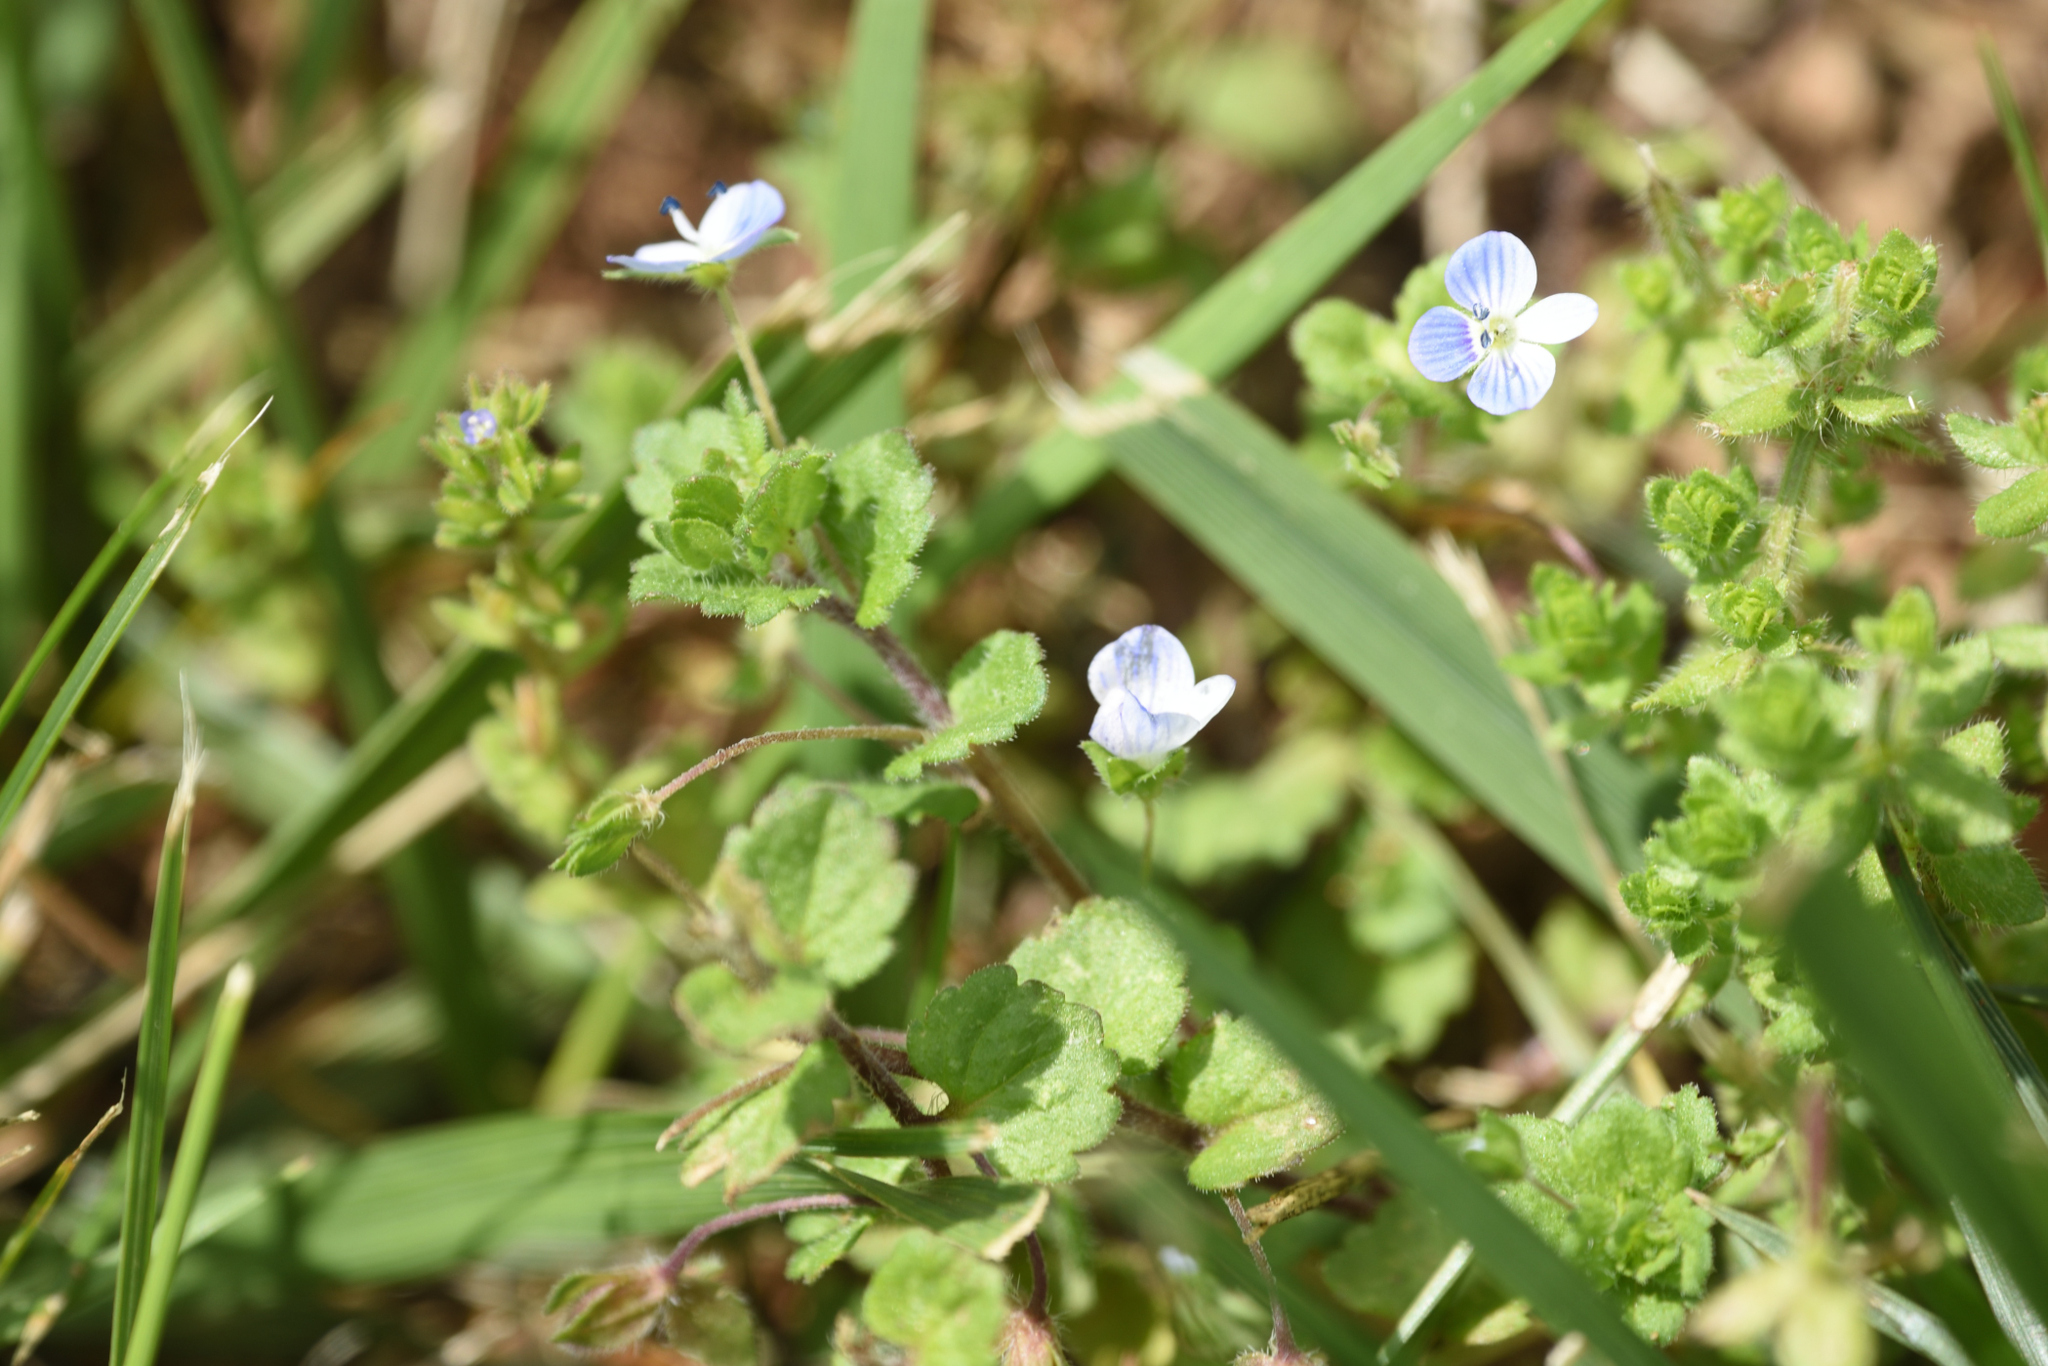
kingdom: Plantae
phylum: Tracheophyta
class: Magnoliopsida
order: Lamiales
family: Plantaginaceae
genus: Veronica
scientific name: Veronica persica
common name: Common field-speedwell
